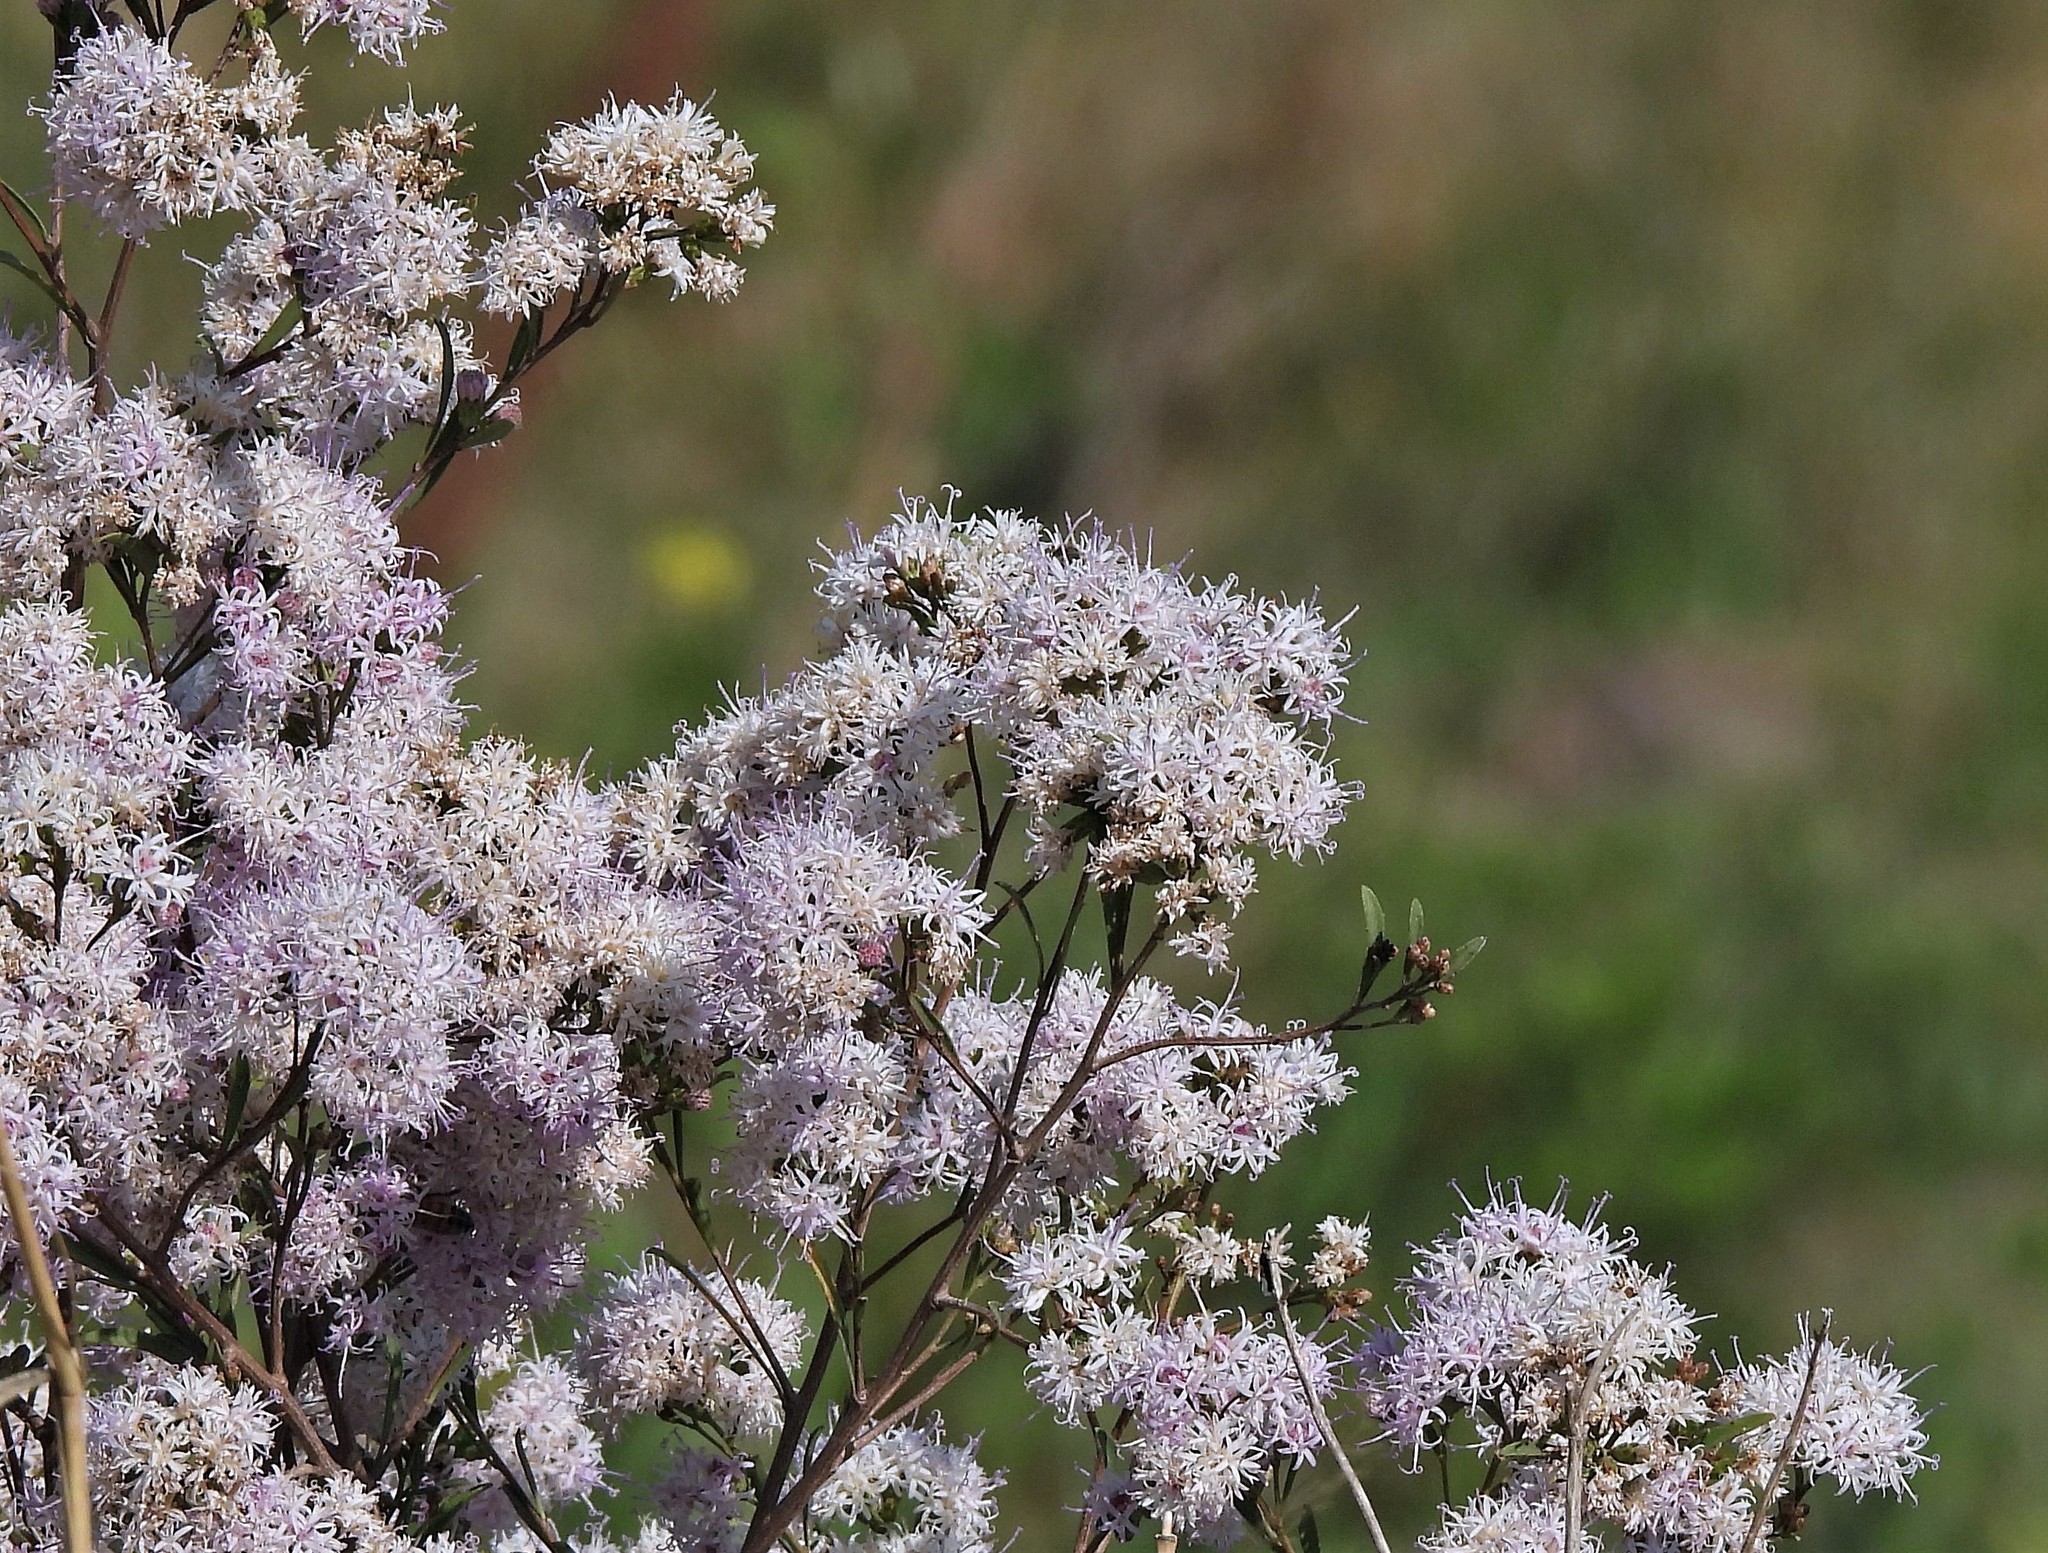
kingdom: Plantae
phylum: Tracheophyta
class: Magnoliopsida
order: Asterales
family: Asteraceae
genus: Vernonanthura
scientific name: Vernonanthura montevidensis
